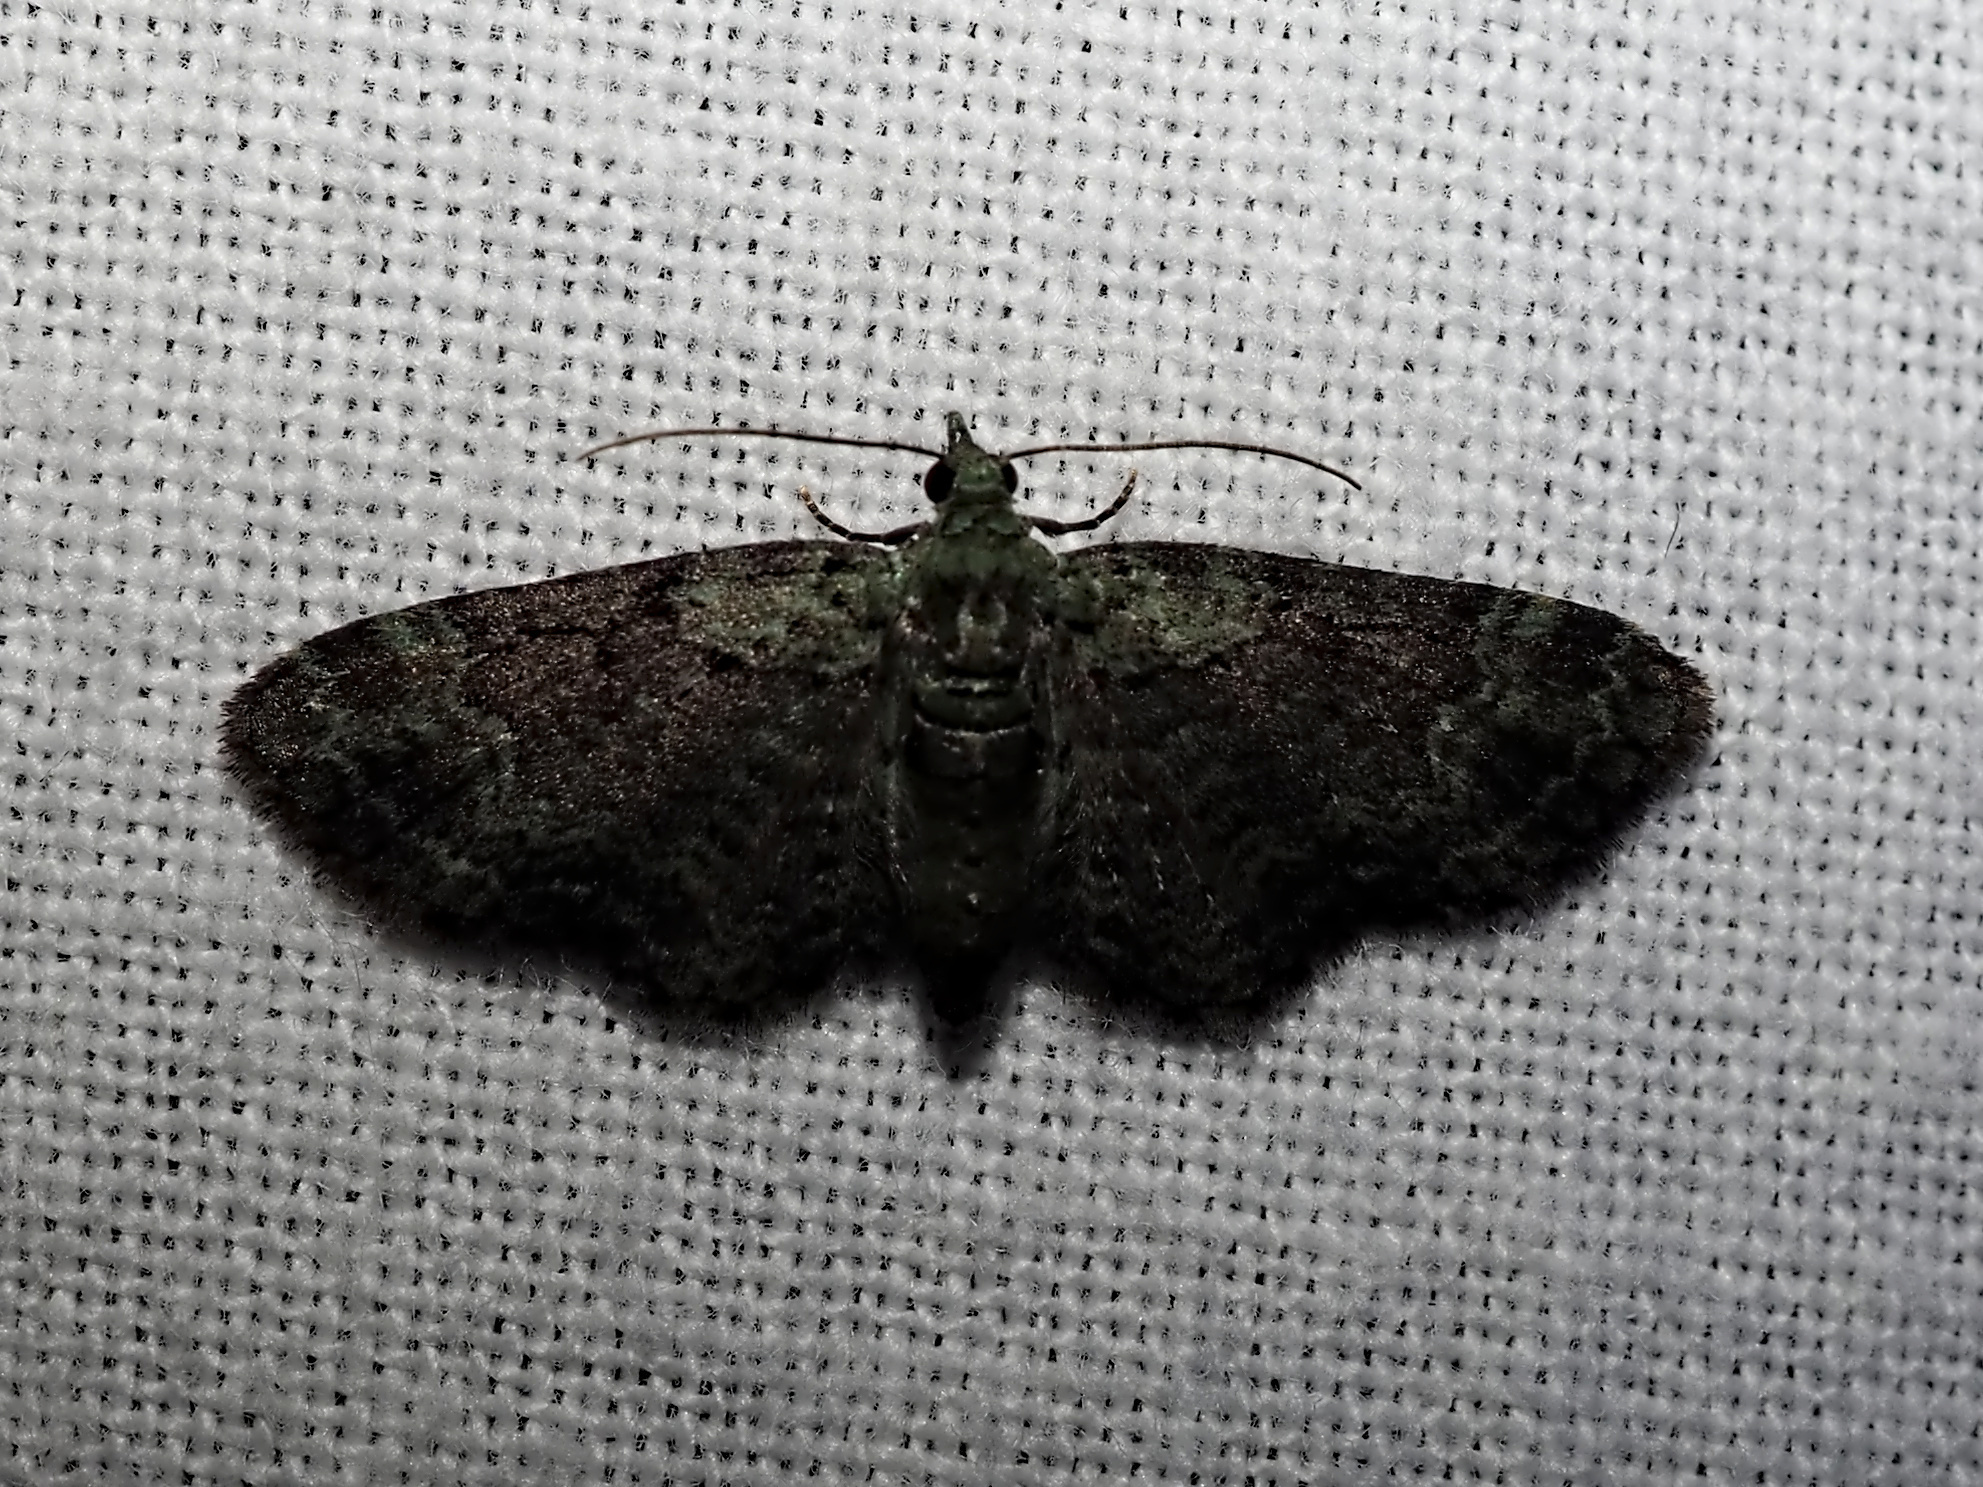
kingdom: Animalia
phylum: Arthropoda
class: Insecta
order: Lepidoptera
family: Geometridae
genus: Pasiphila
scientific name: Pasiphila rectangulata
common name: Green pug
